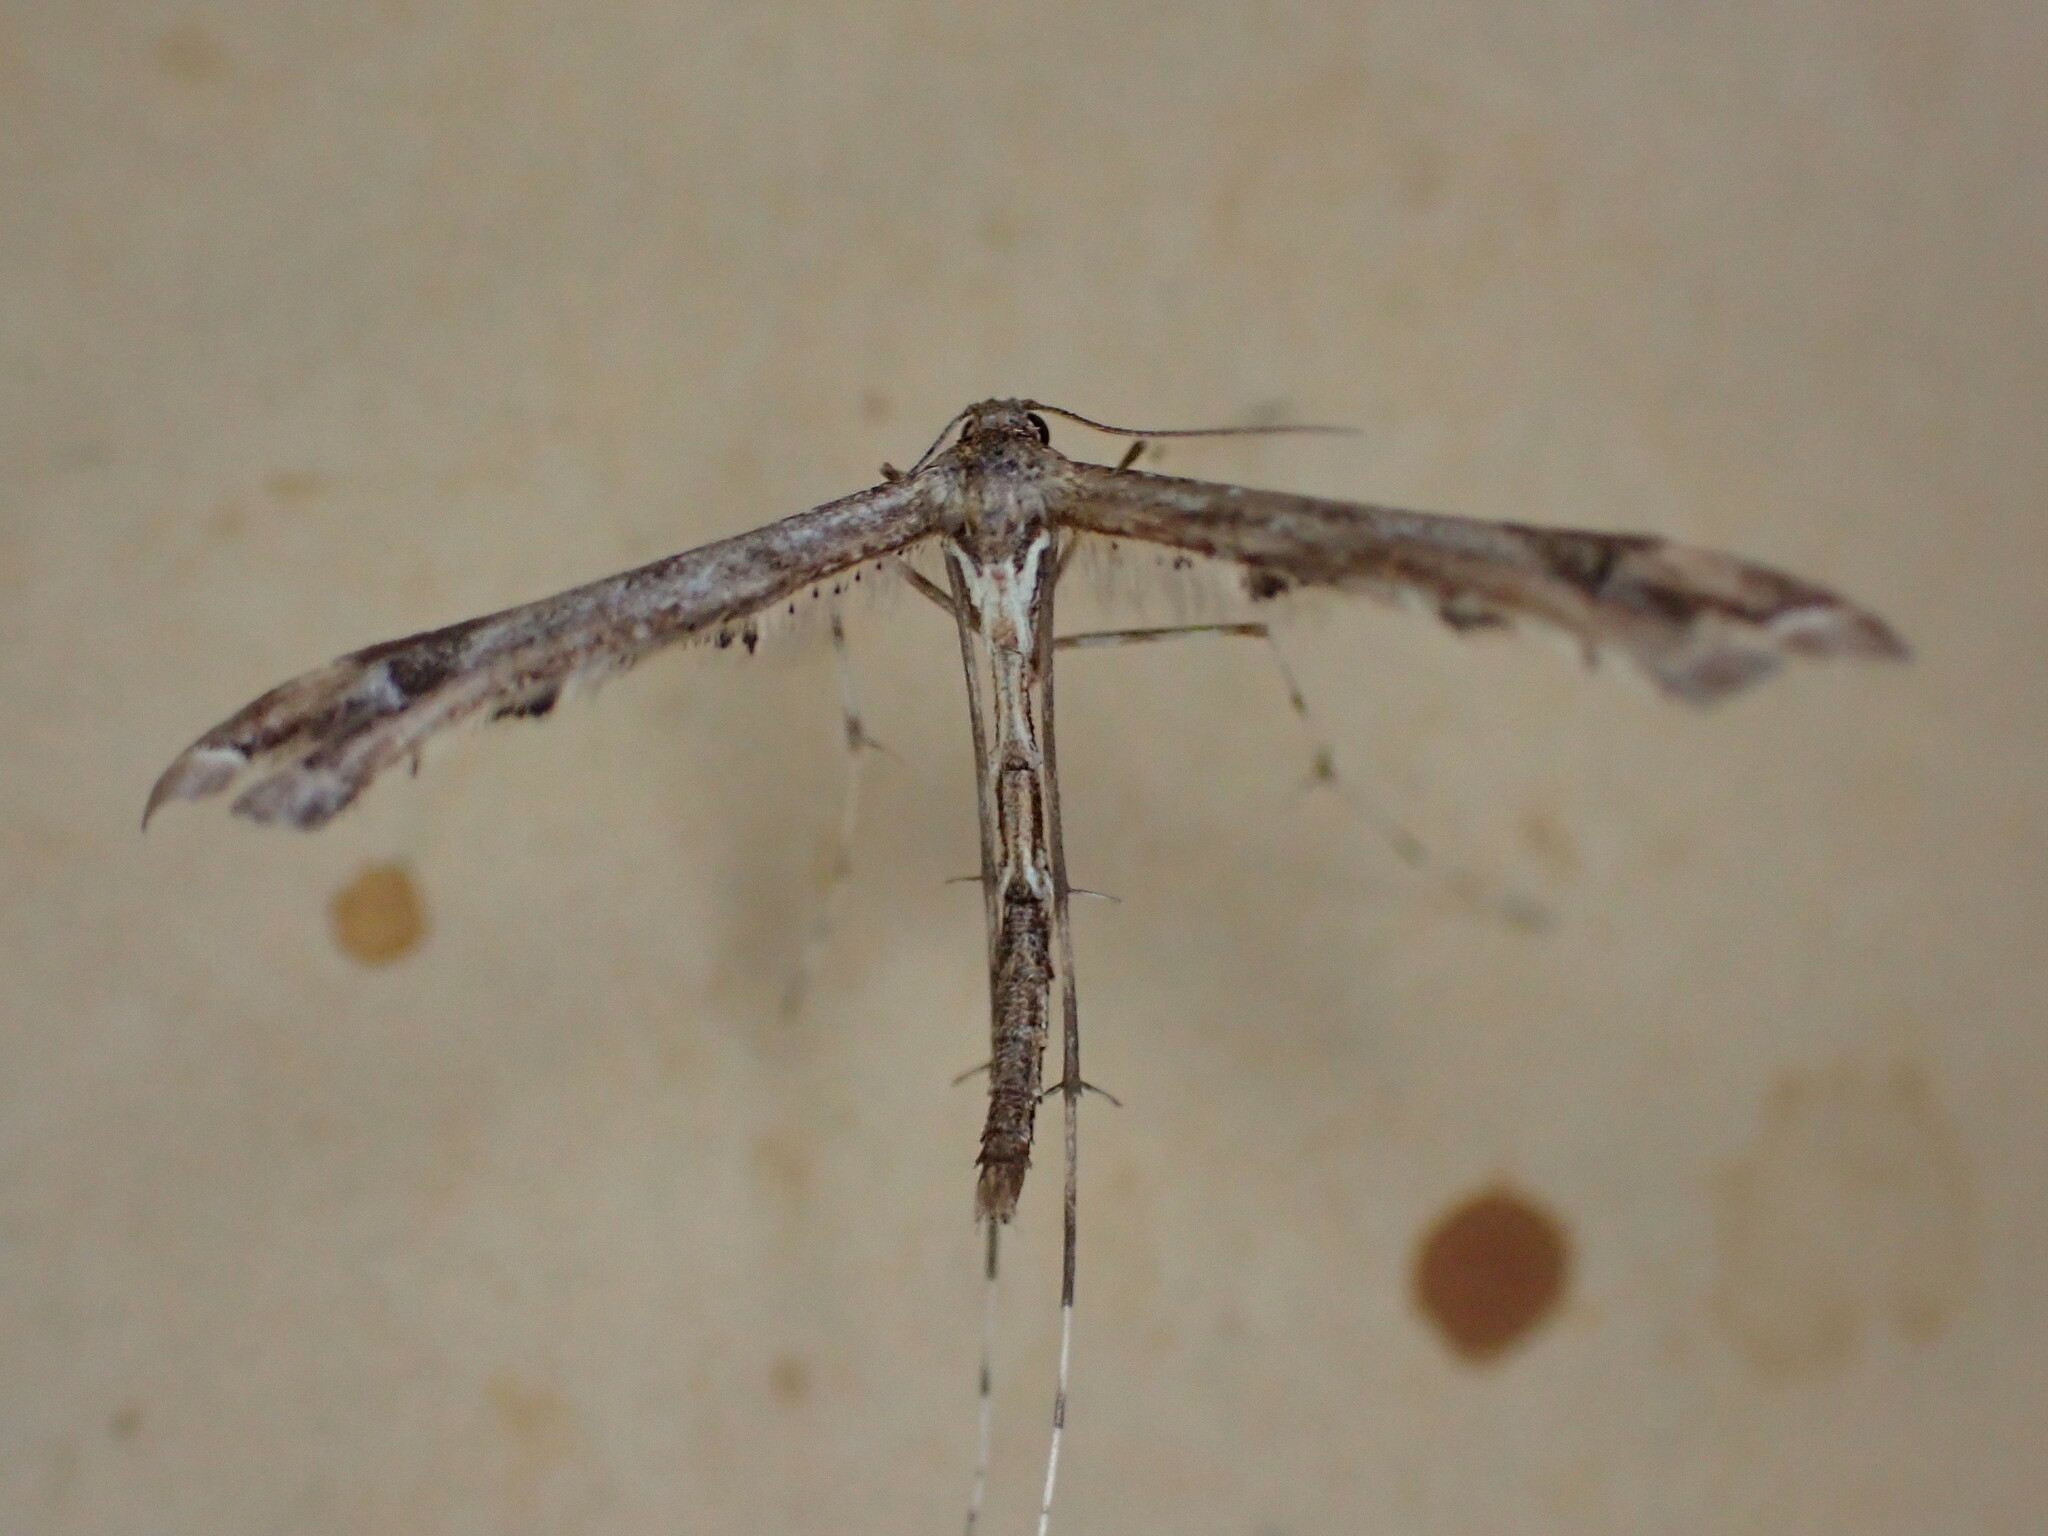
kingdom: Animalia
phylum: Arthropoda
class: Insecta
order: Lepidoptera
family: Pterophoridae
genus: Amblyptilia
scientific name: Amblyptilia acanthadactyla
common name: Beautiful plume
